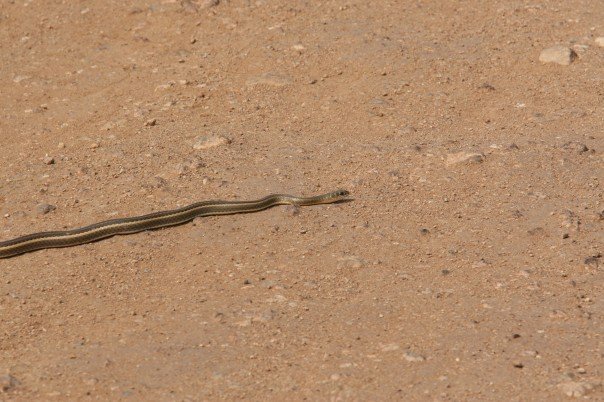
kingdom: Animalia
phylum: Chordata
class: Squamata
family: Psammophiidae
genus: Psammophis
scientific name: Psammophis rukwae
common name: Lake rukwa sand snake
